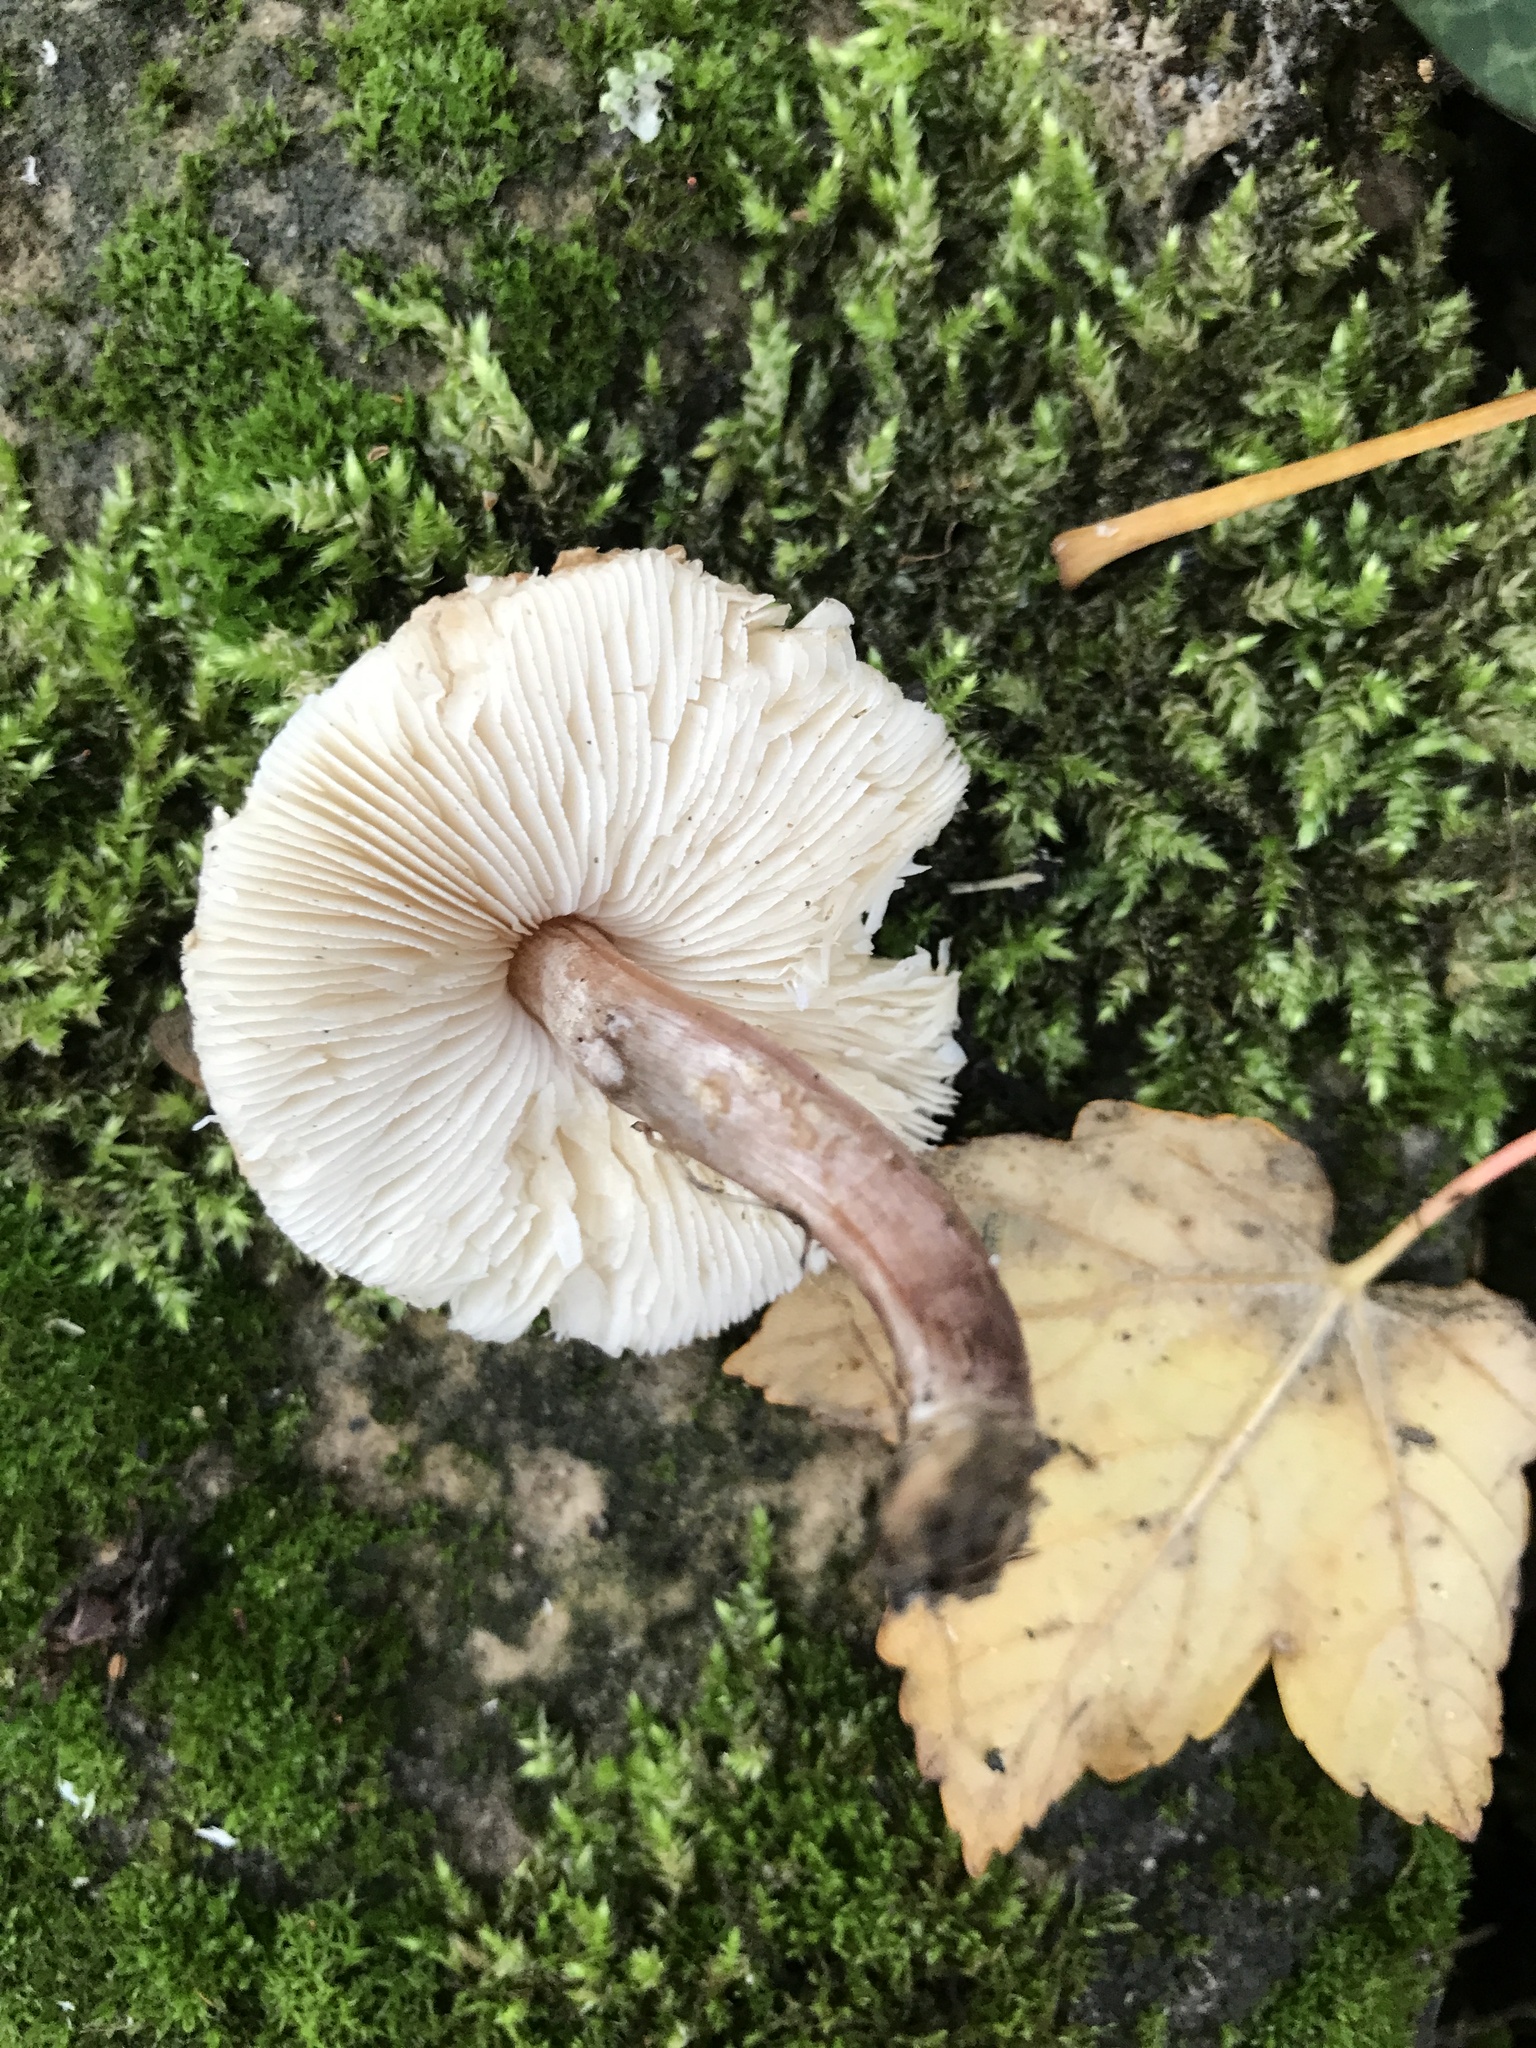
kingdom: Fungi
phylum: Basidiomycota
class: Agaricomycetes
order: Agaricales
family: Agaricaceae
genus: Lepiota
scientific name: Lepiota cristata
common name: Stinking dapperling
